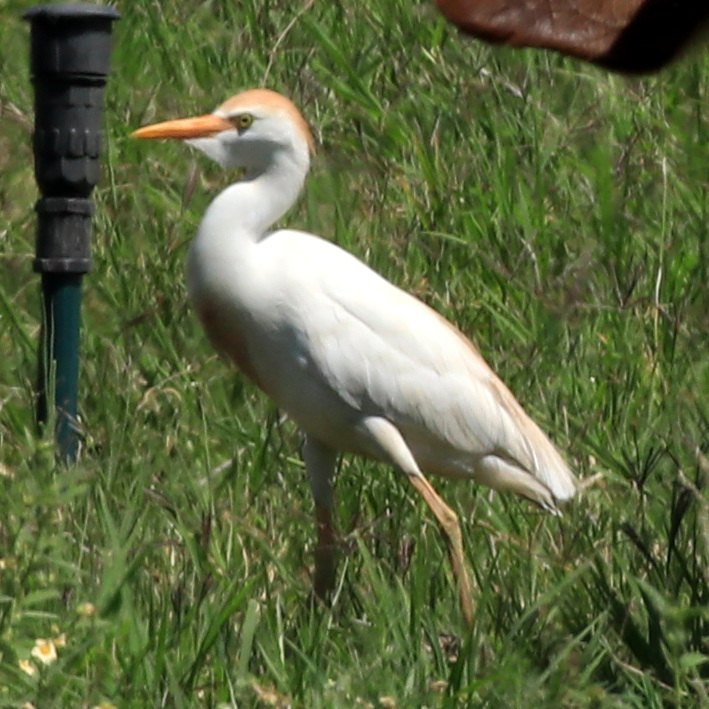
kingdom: Animalia
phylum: Chordata
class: Aves
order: Pelecaniformes
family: Ardeidae
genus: Bubulcus
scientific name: Bubulcus ibis
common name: Cattle egret
